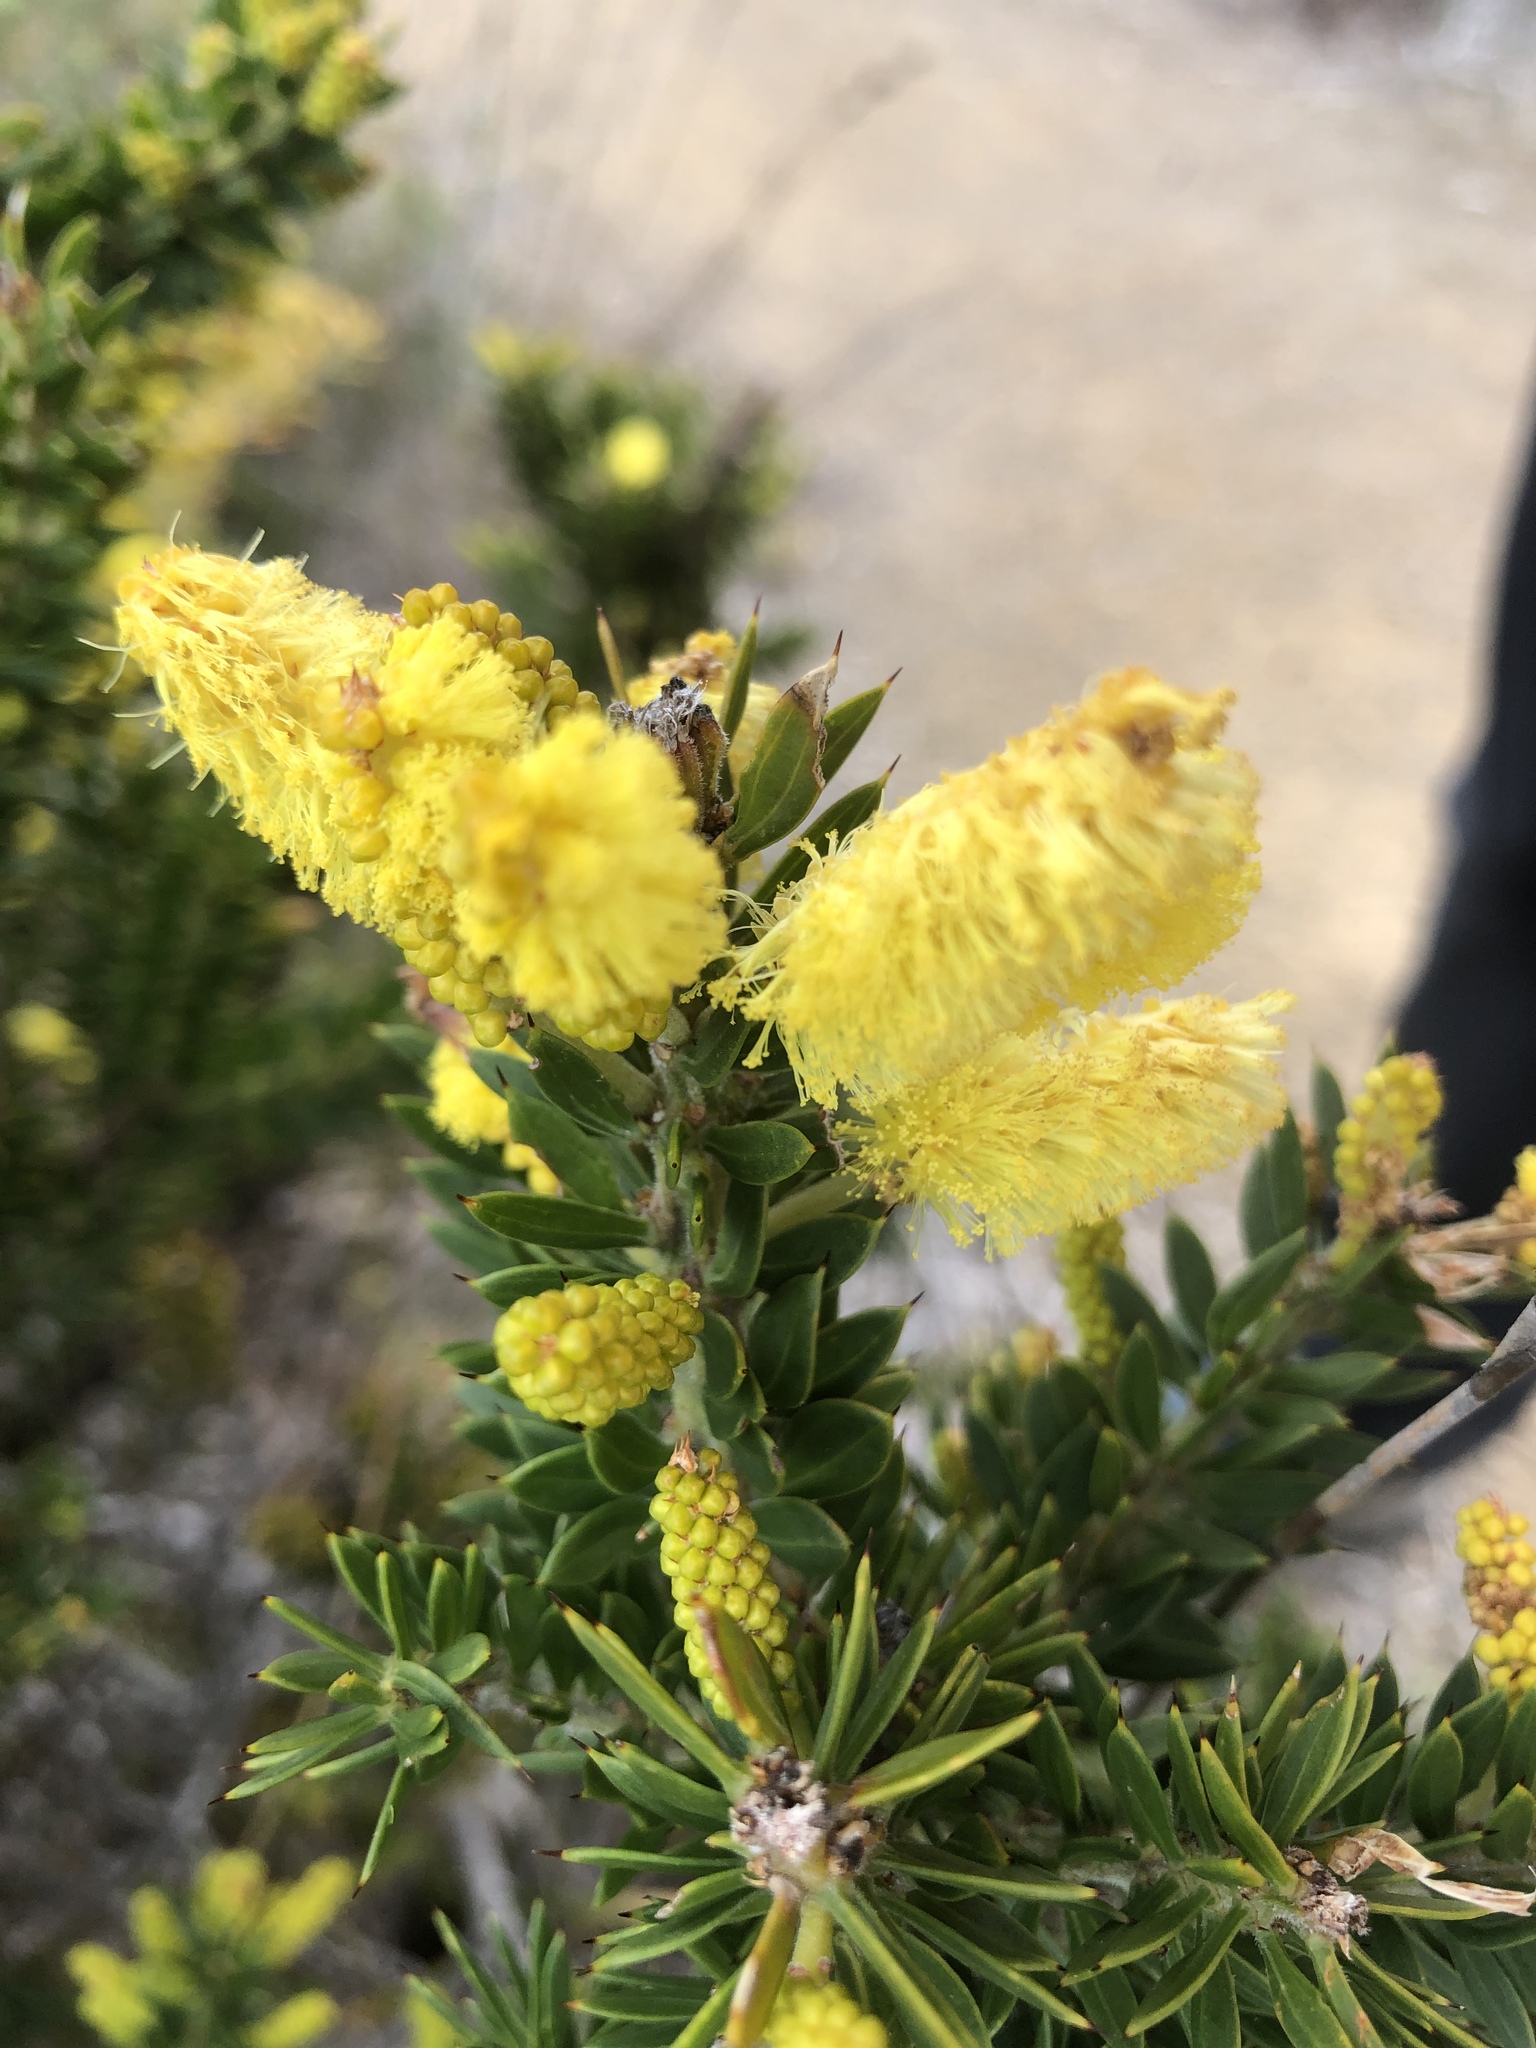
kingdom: Plantae
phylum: Tracheophyta
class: Magnoliopsida
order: Fabales
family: Fabaceae
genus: Acacia
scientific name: Acacia verticillata
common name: Prickly moses
